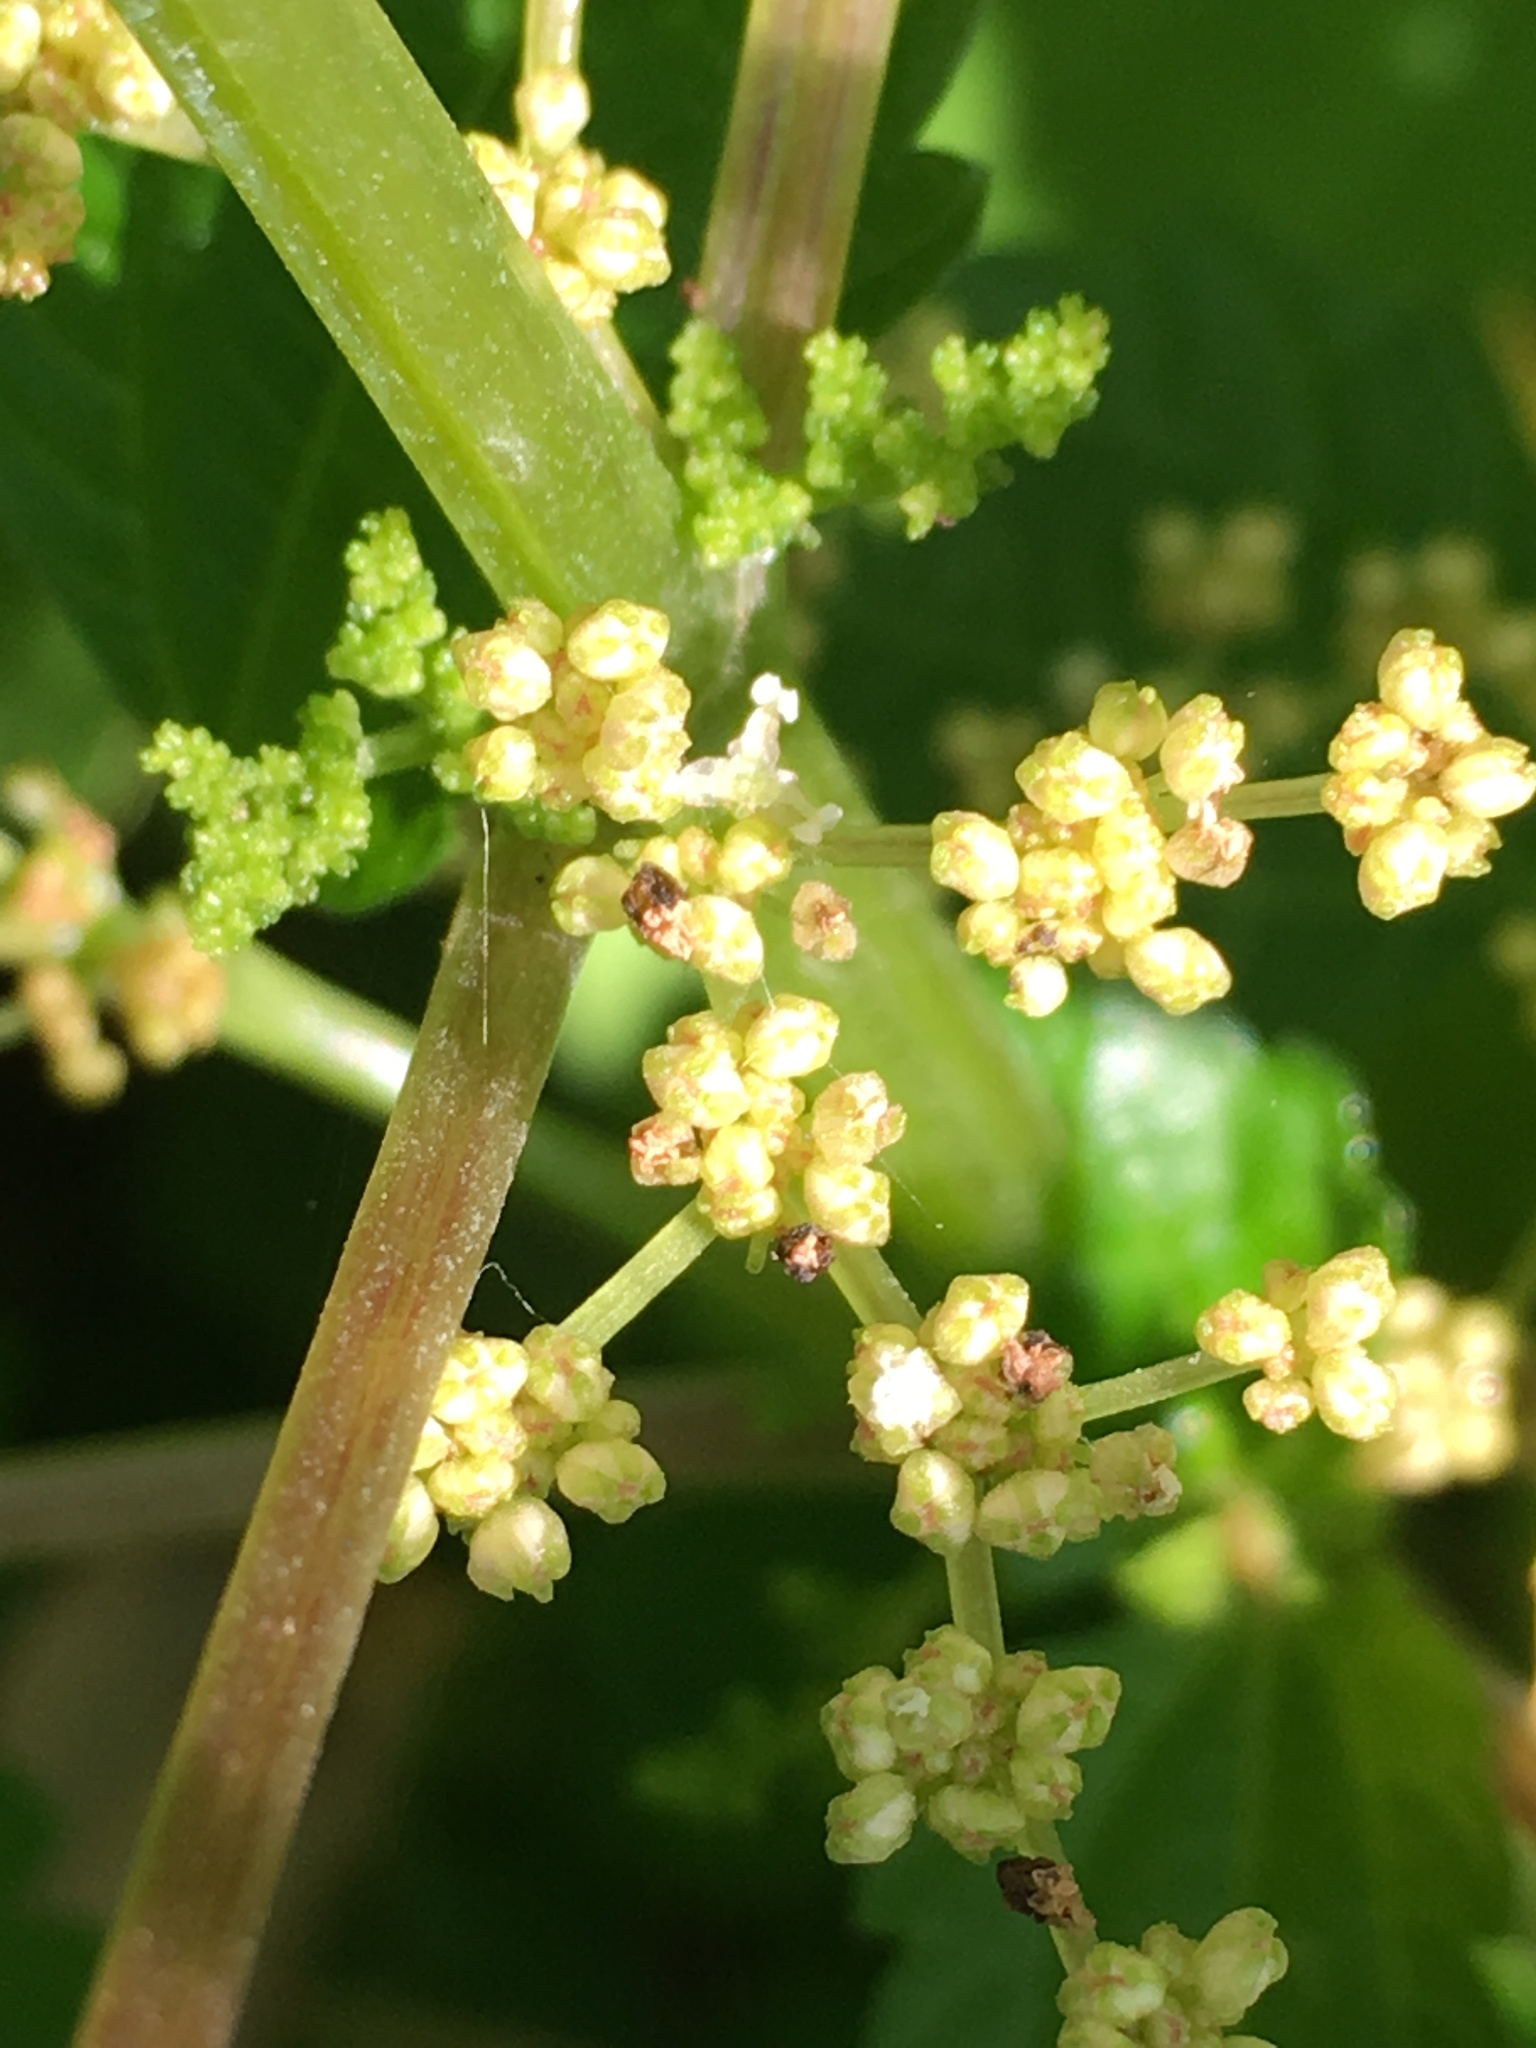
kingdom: Plantae
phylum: Tracheophyta
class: Magnoliopsida
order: Rosales
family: Urticaceae
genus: Pilea
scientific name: Pilea pumila
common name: Clearweed
